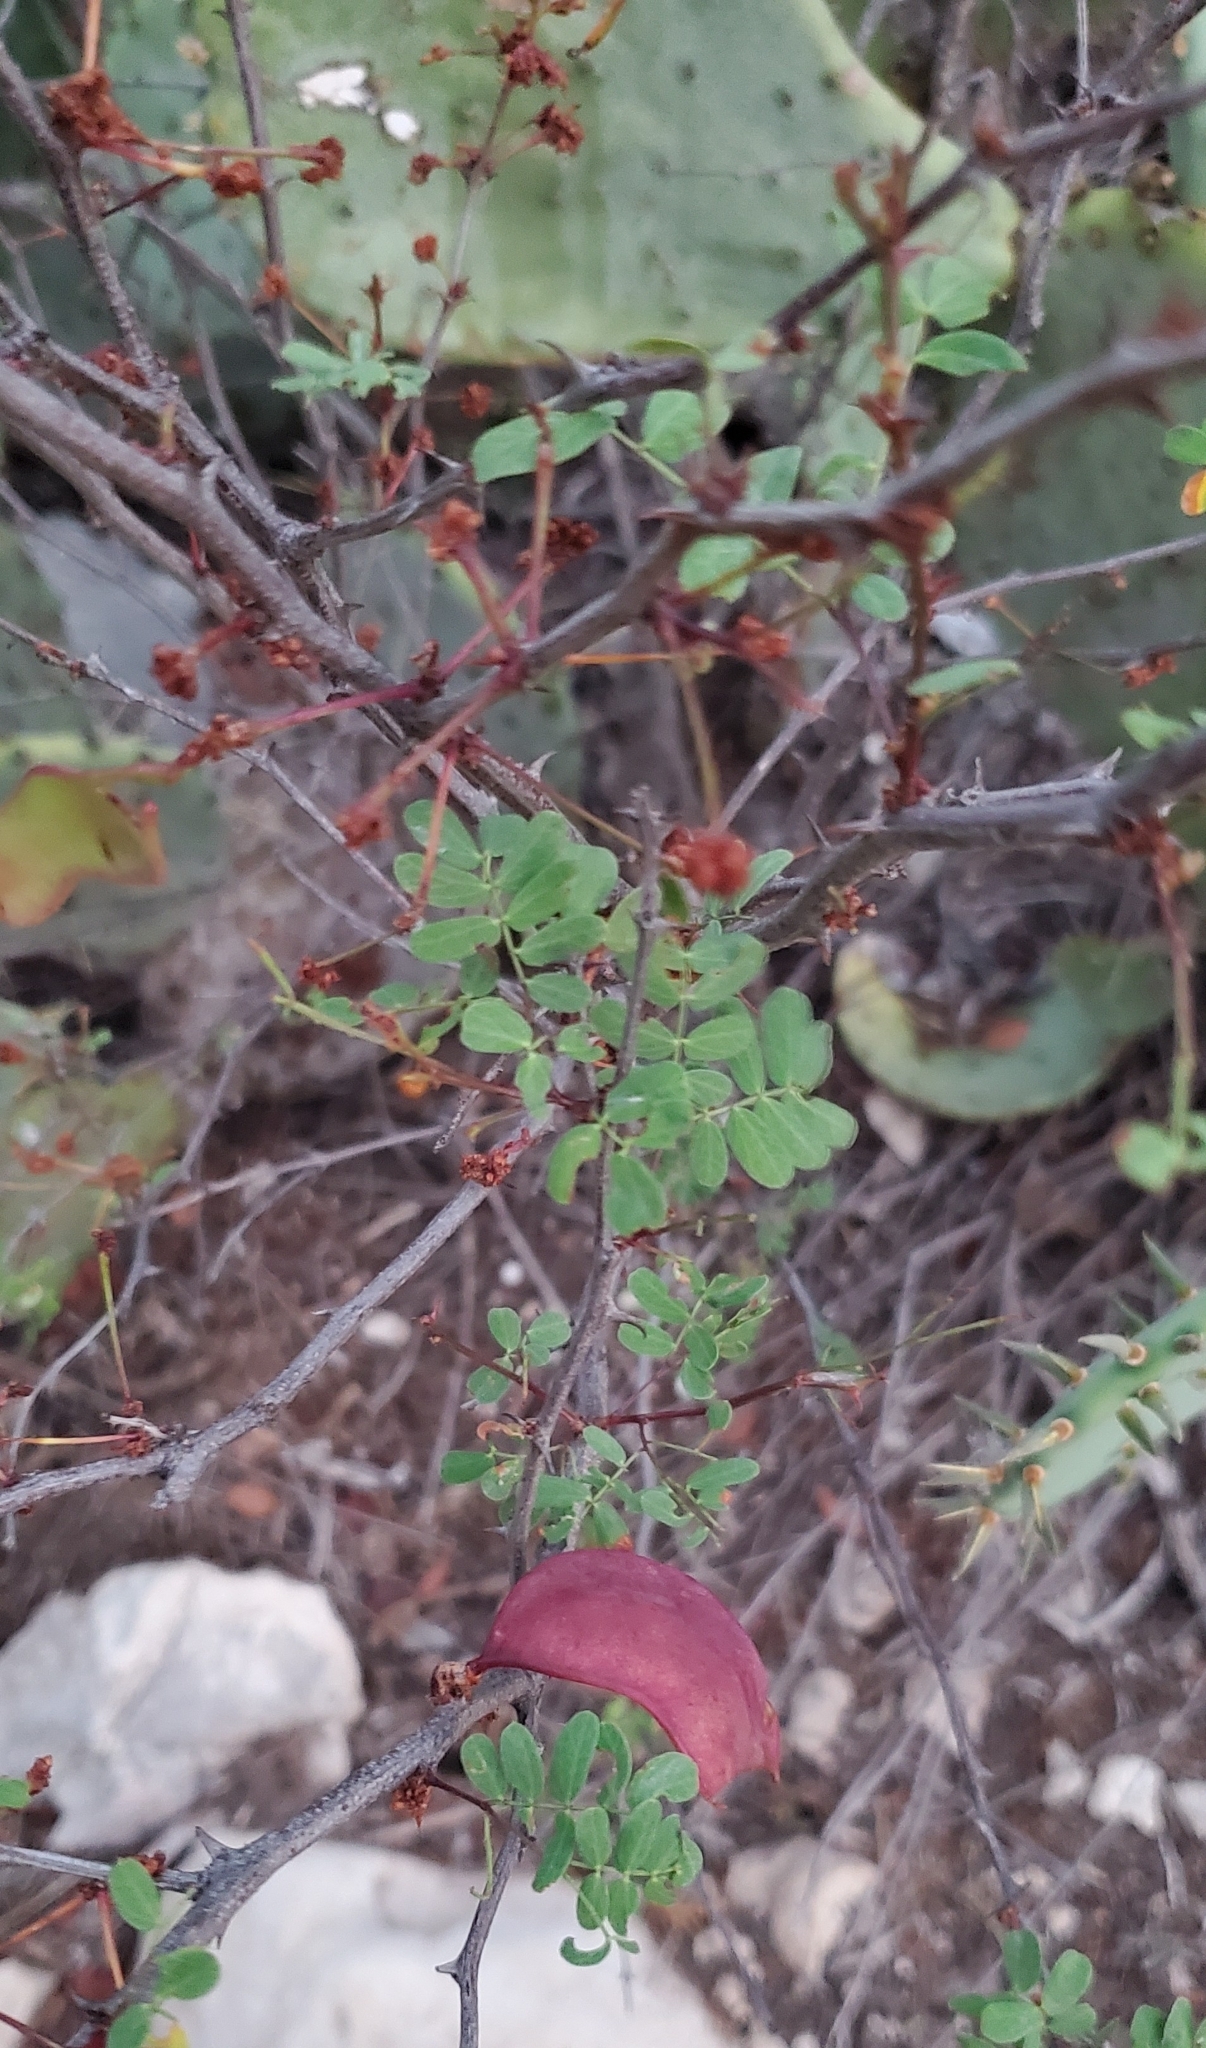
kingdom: Plantae
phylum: Tracheophyta
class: Magnoliopsida
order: Fabales
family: Fabaceae
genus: Senegalia
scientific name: Senegalia roemeriana
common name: Roemer's acacia
